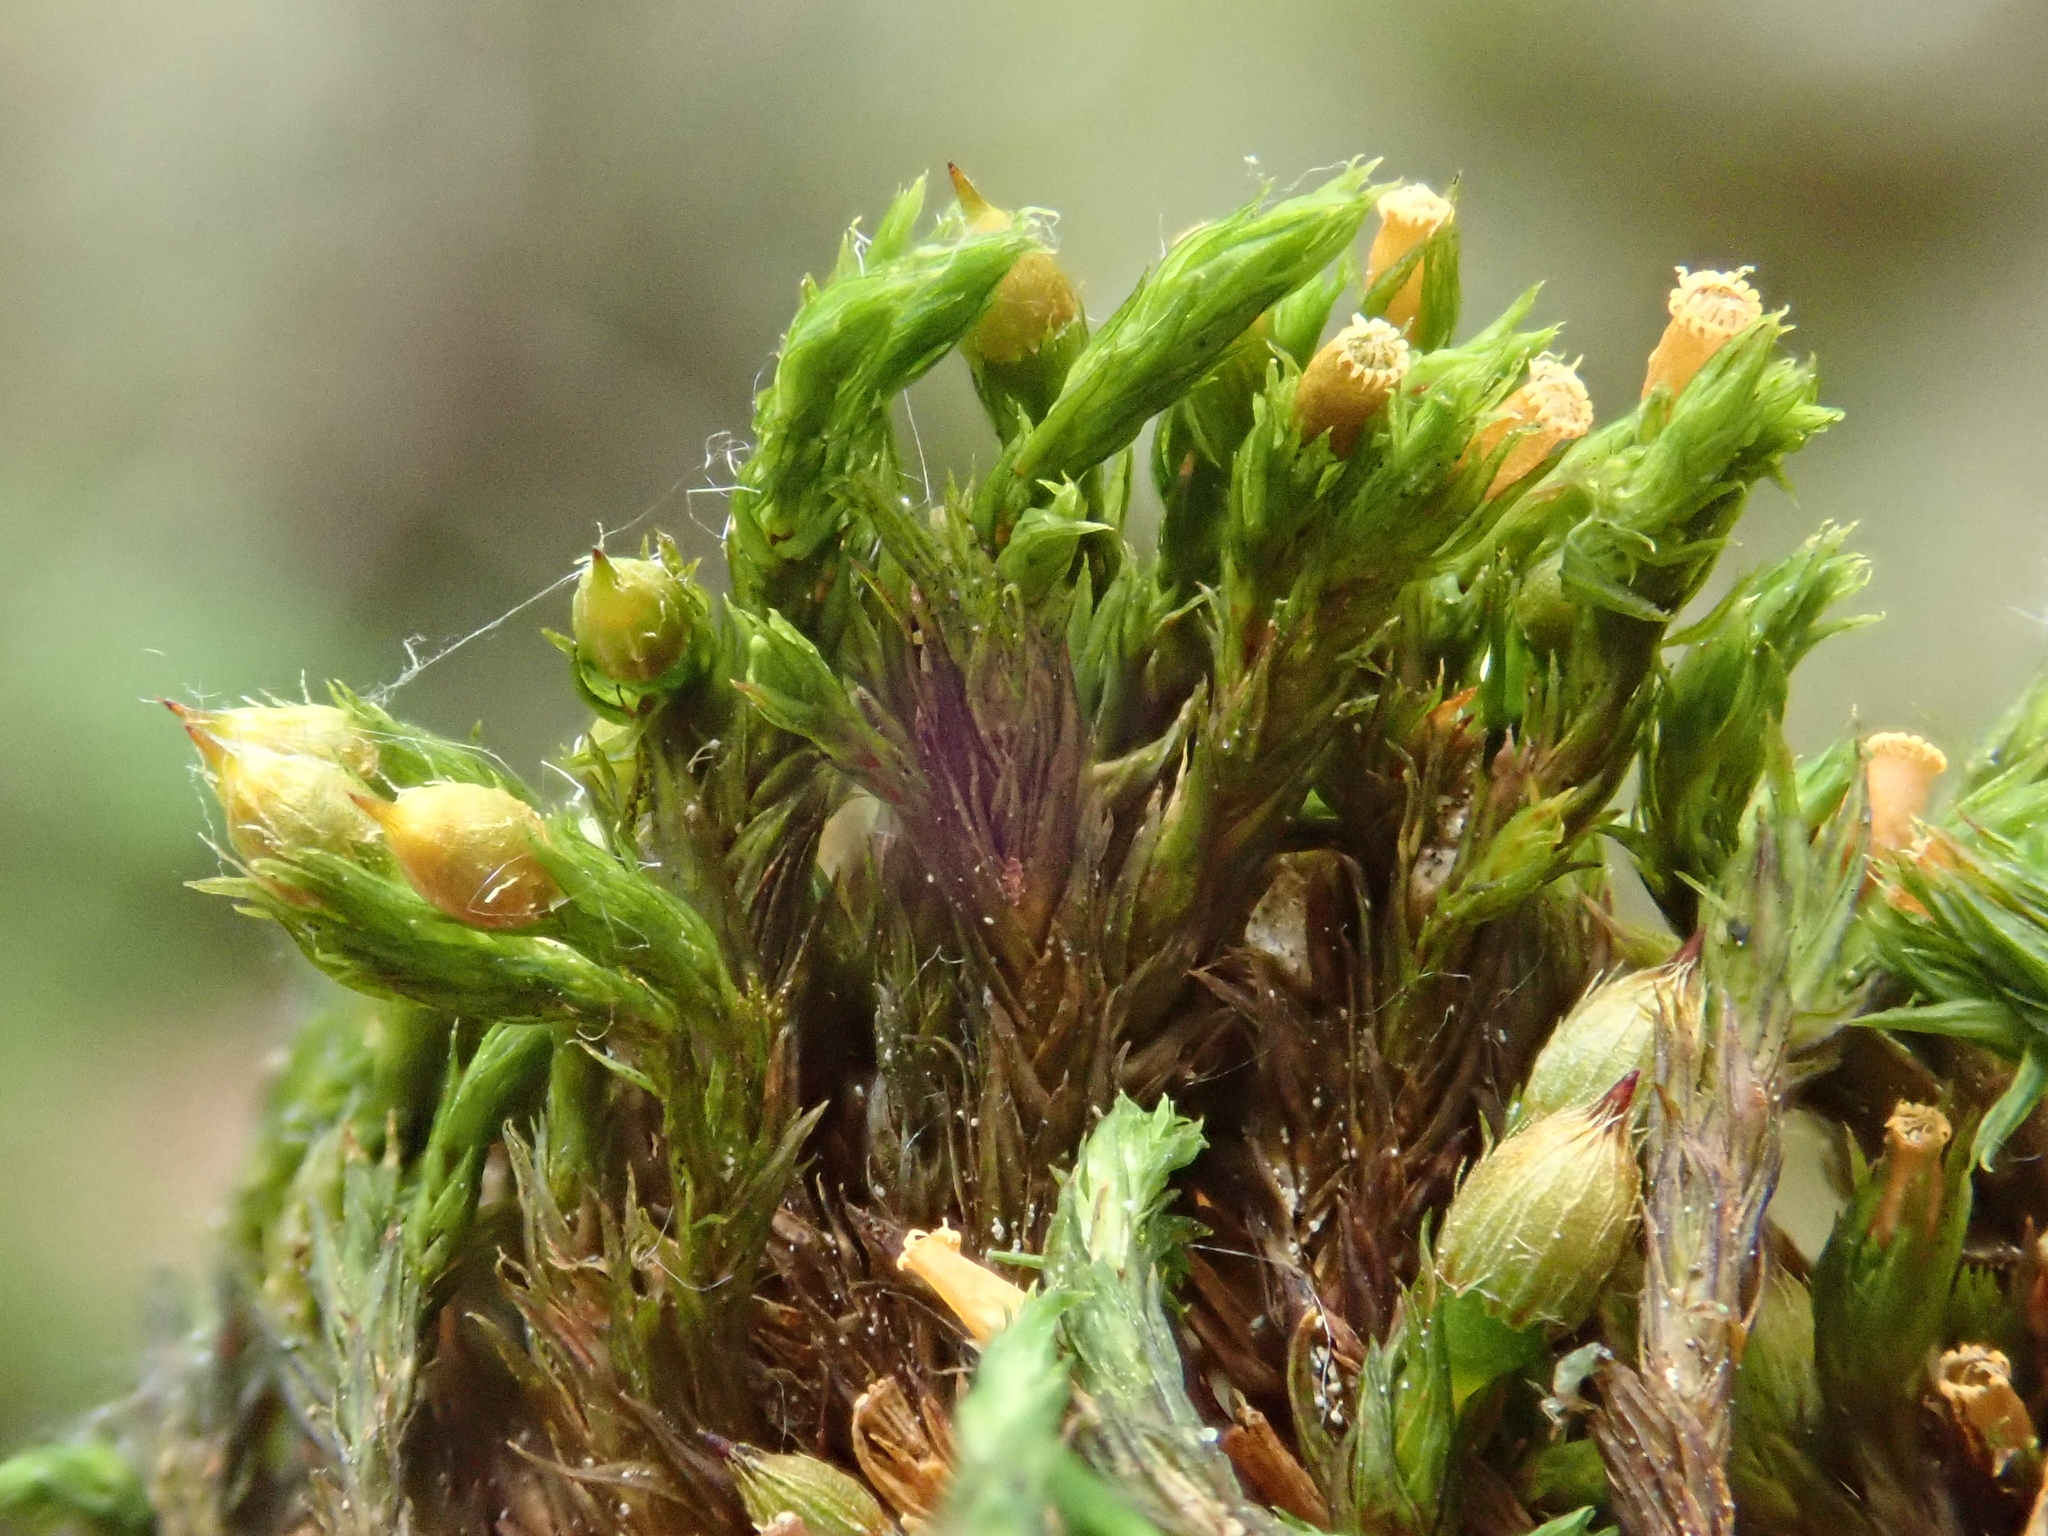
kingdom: Plantae
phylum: Bryophyta
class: Bryopsida
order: Orthotrichales
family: Orthotrichaceae
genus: Lewinskya
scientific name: Lewinskya striata
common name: Shaw's bristle-moss
